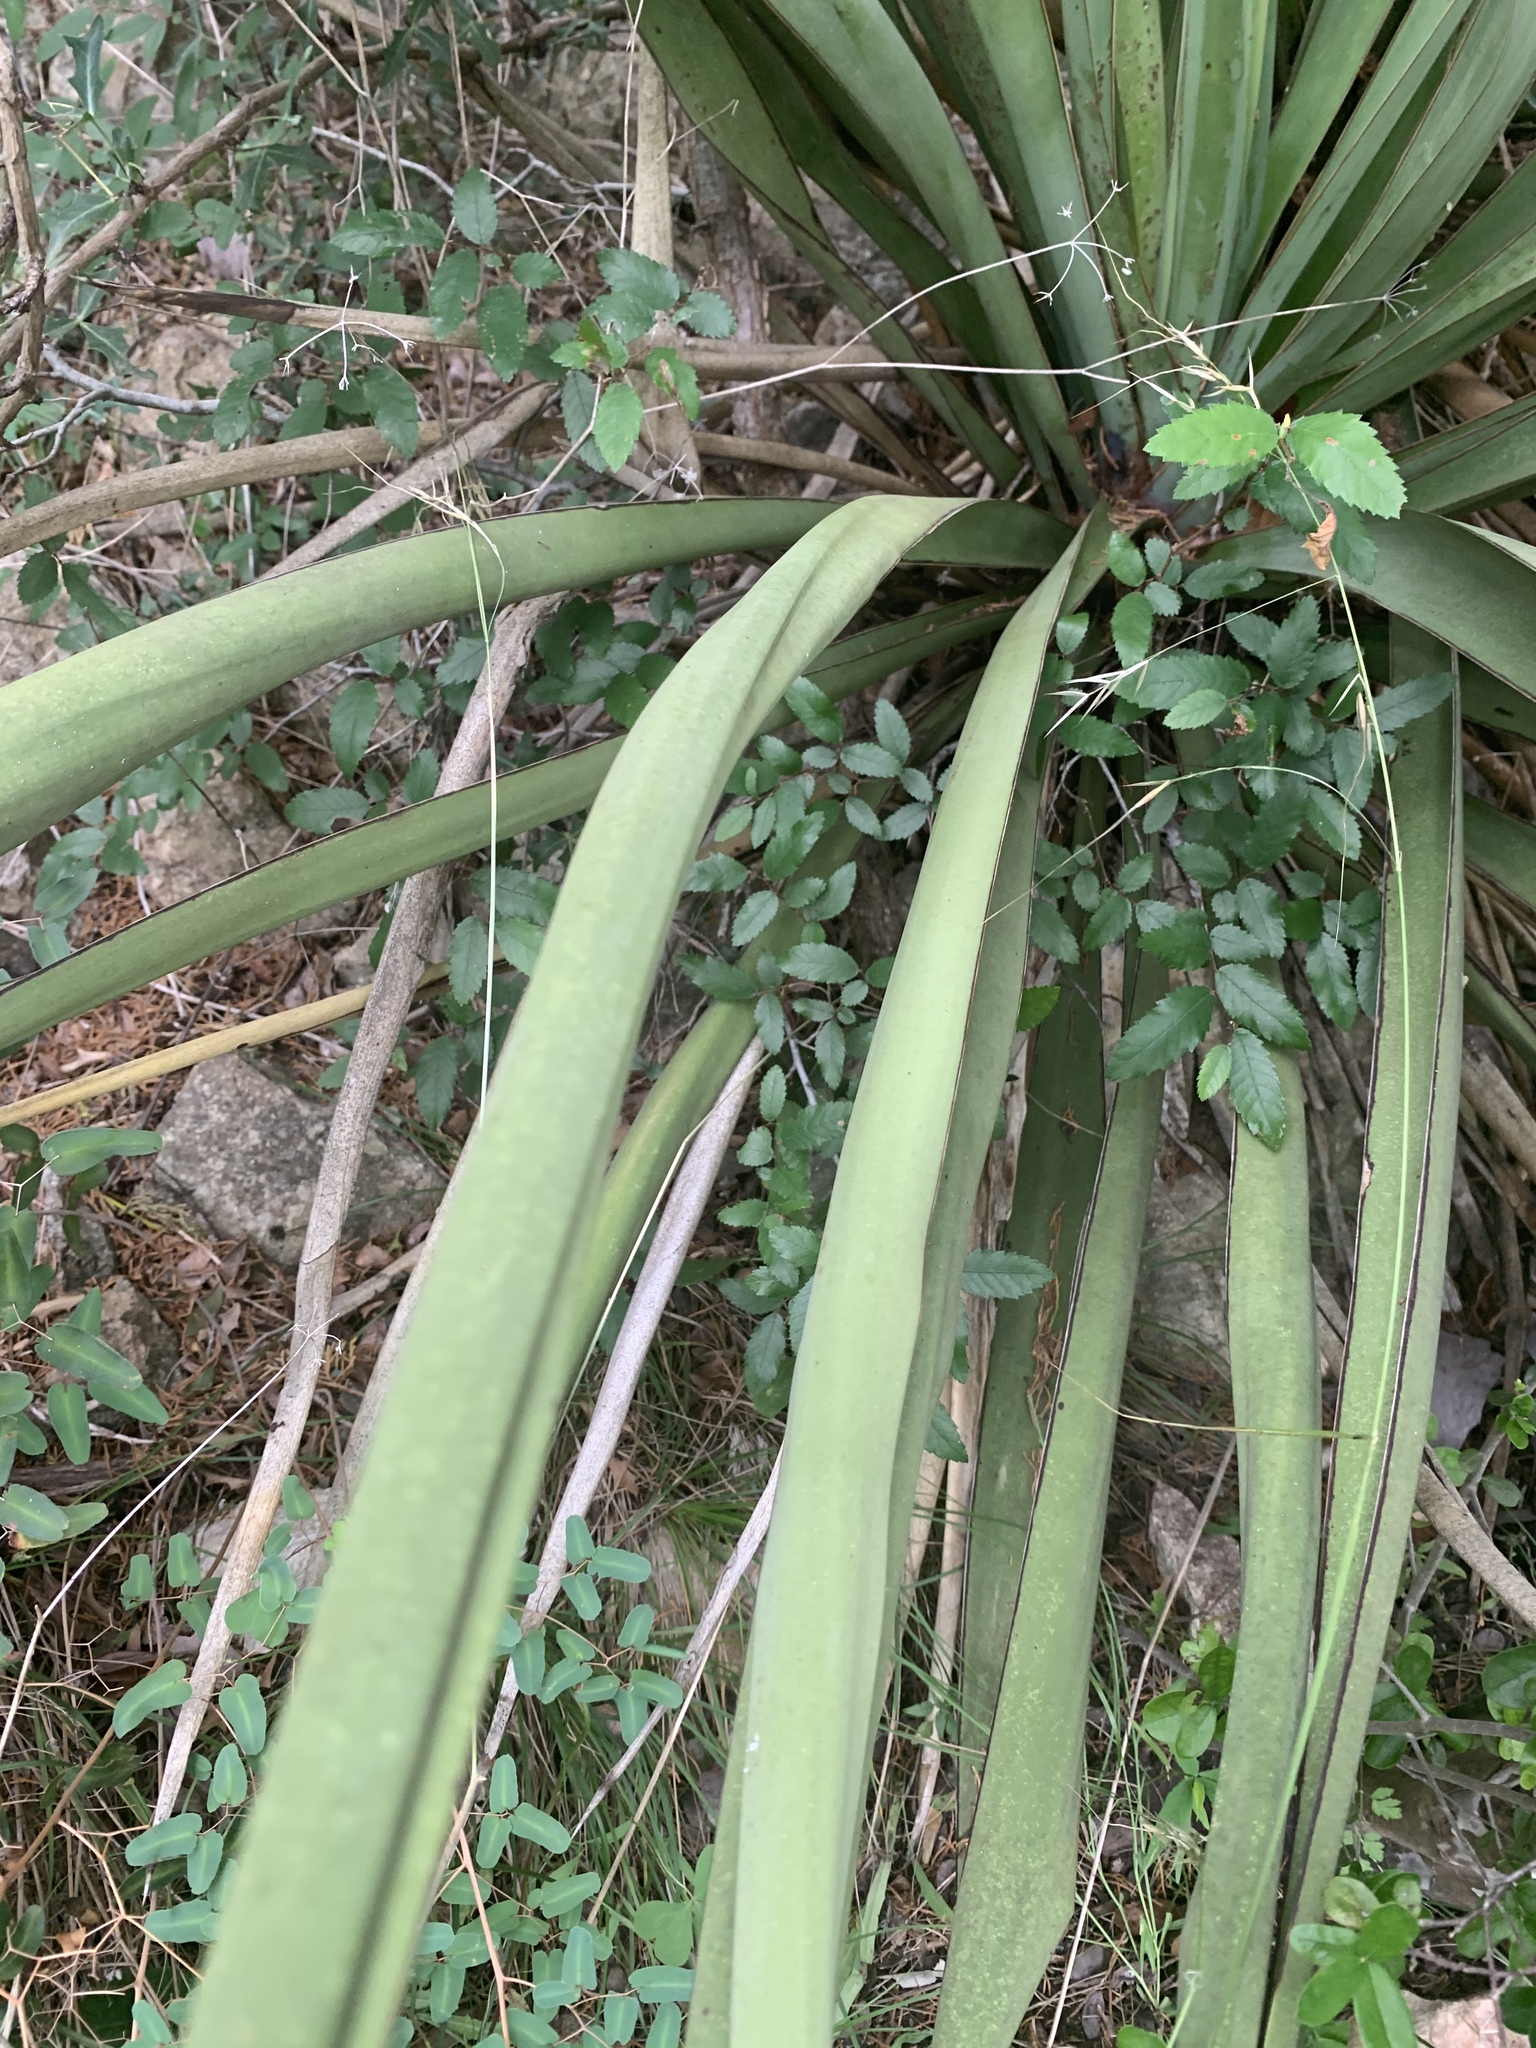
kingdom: Plantae
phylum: Tracheophyta
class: Liliopsida
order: Asparagales
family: Asparagaceae
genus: Yucca
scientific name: Yucca treculiana
